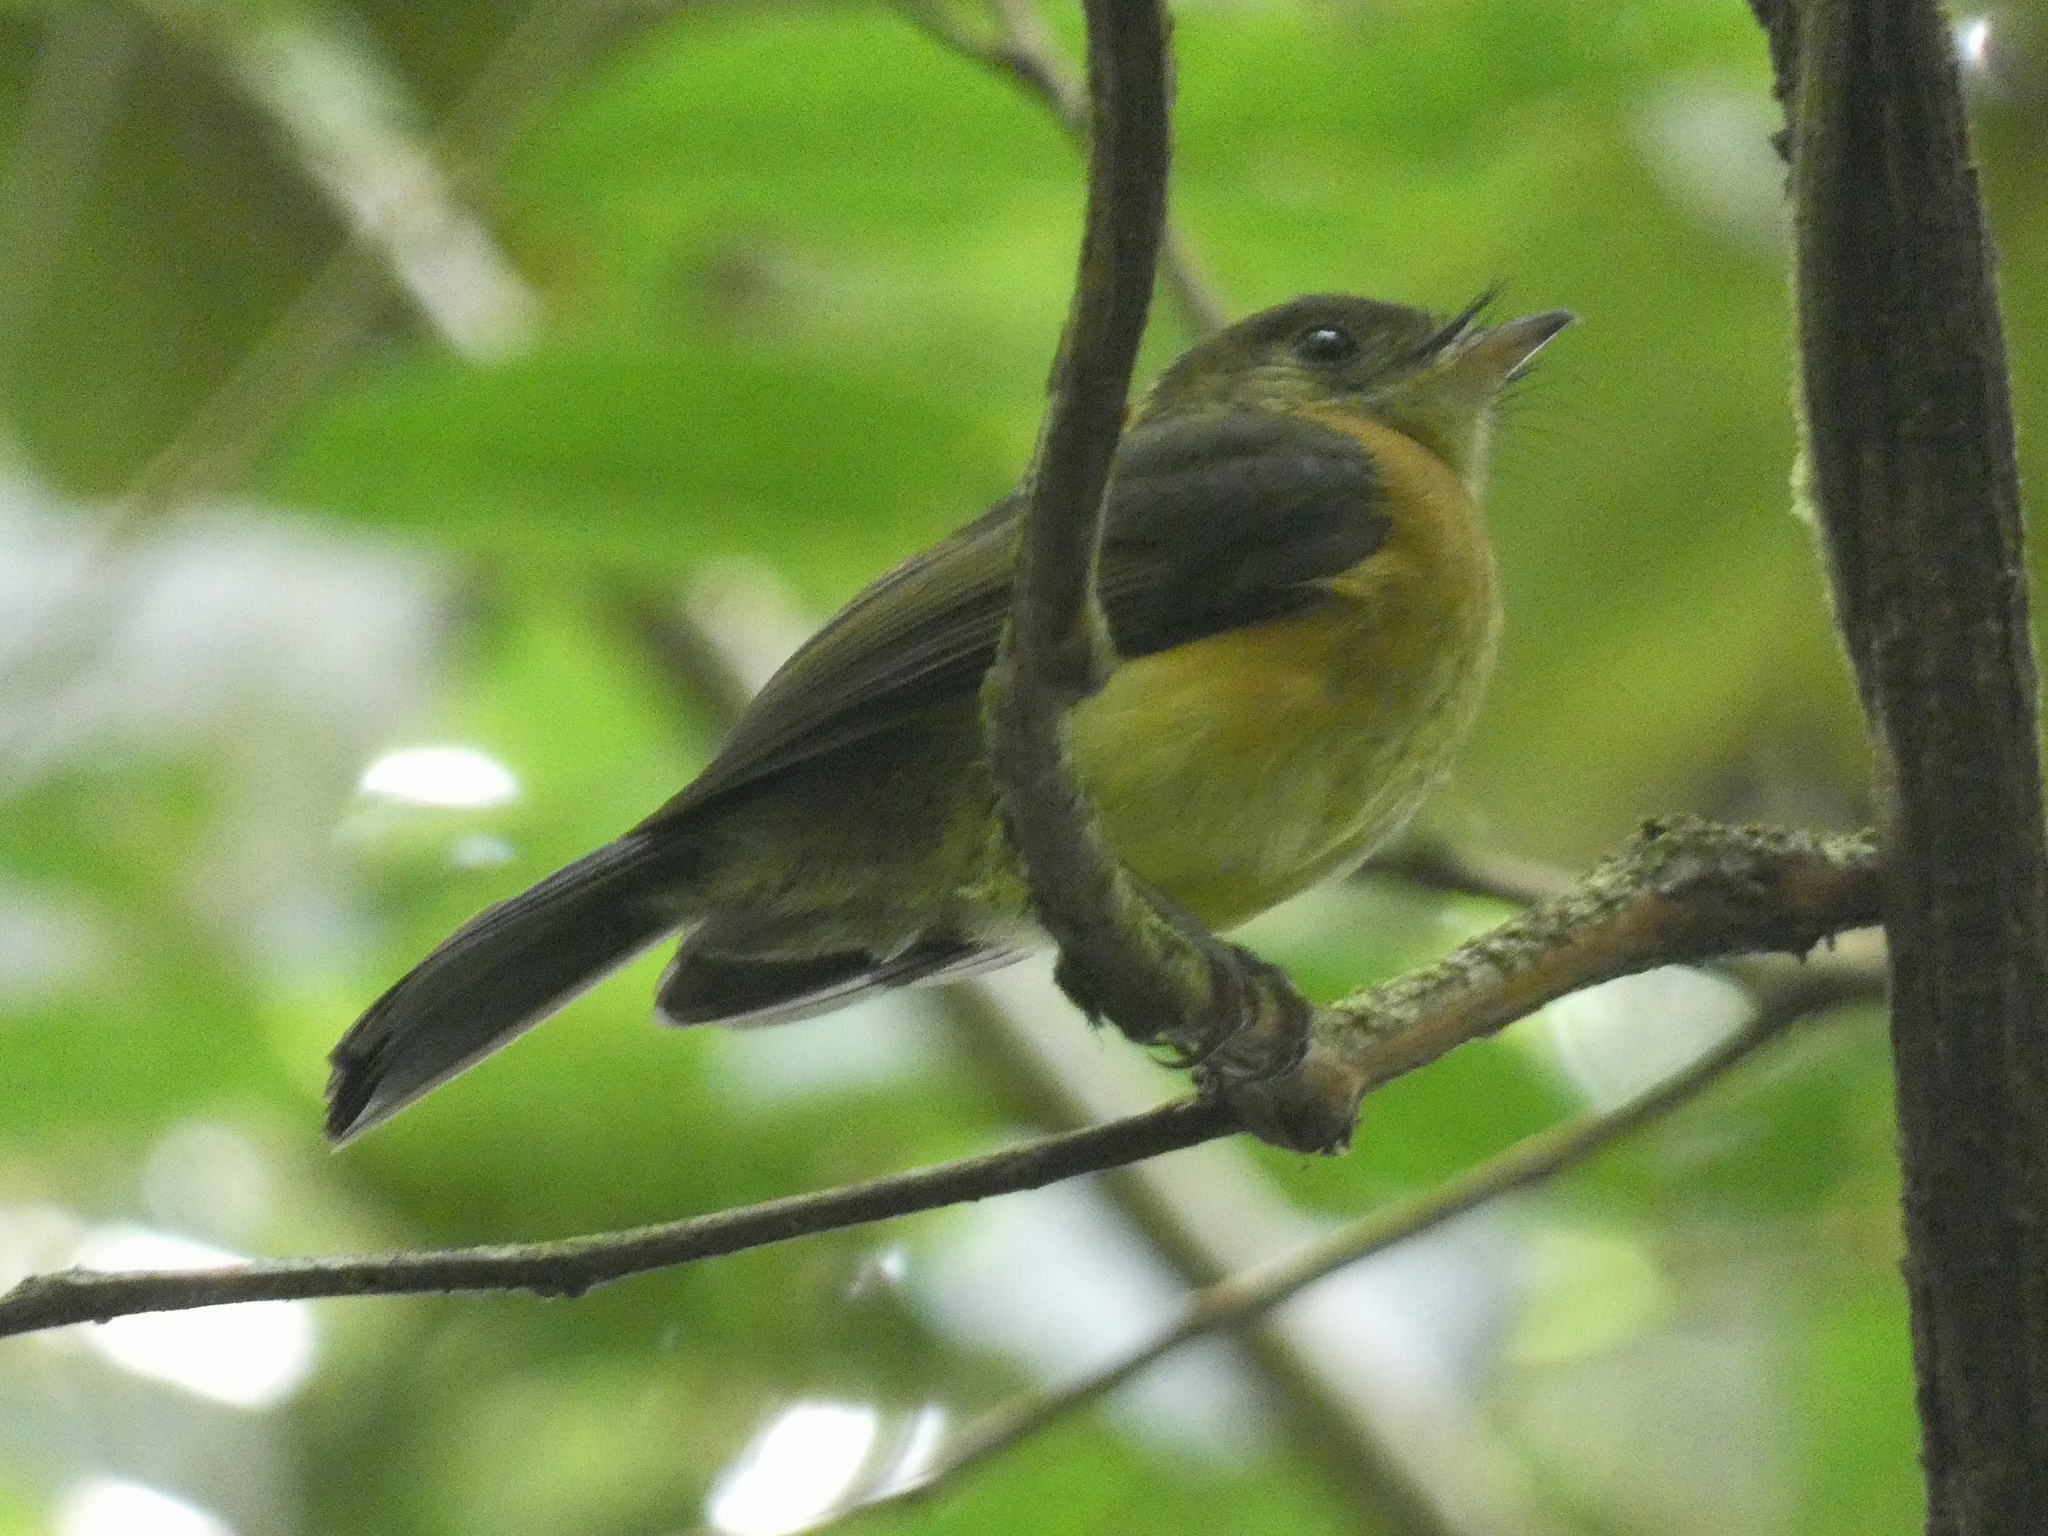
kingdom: Animalia
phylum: Chordata
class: Aves
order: Passeriformes
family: Tyrannidae
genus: Myiobius
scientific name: Myiobius barbatus
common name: Whiskered myiobius
